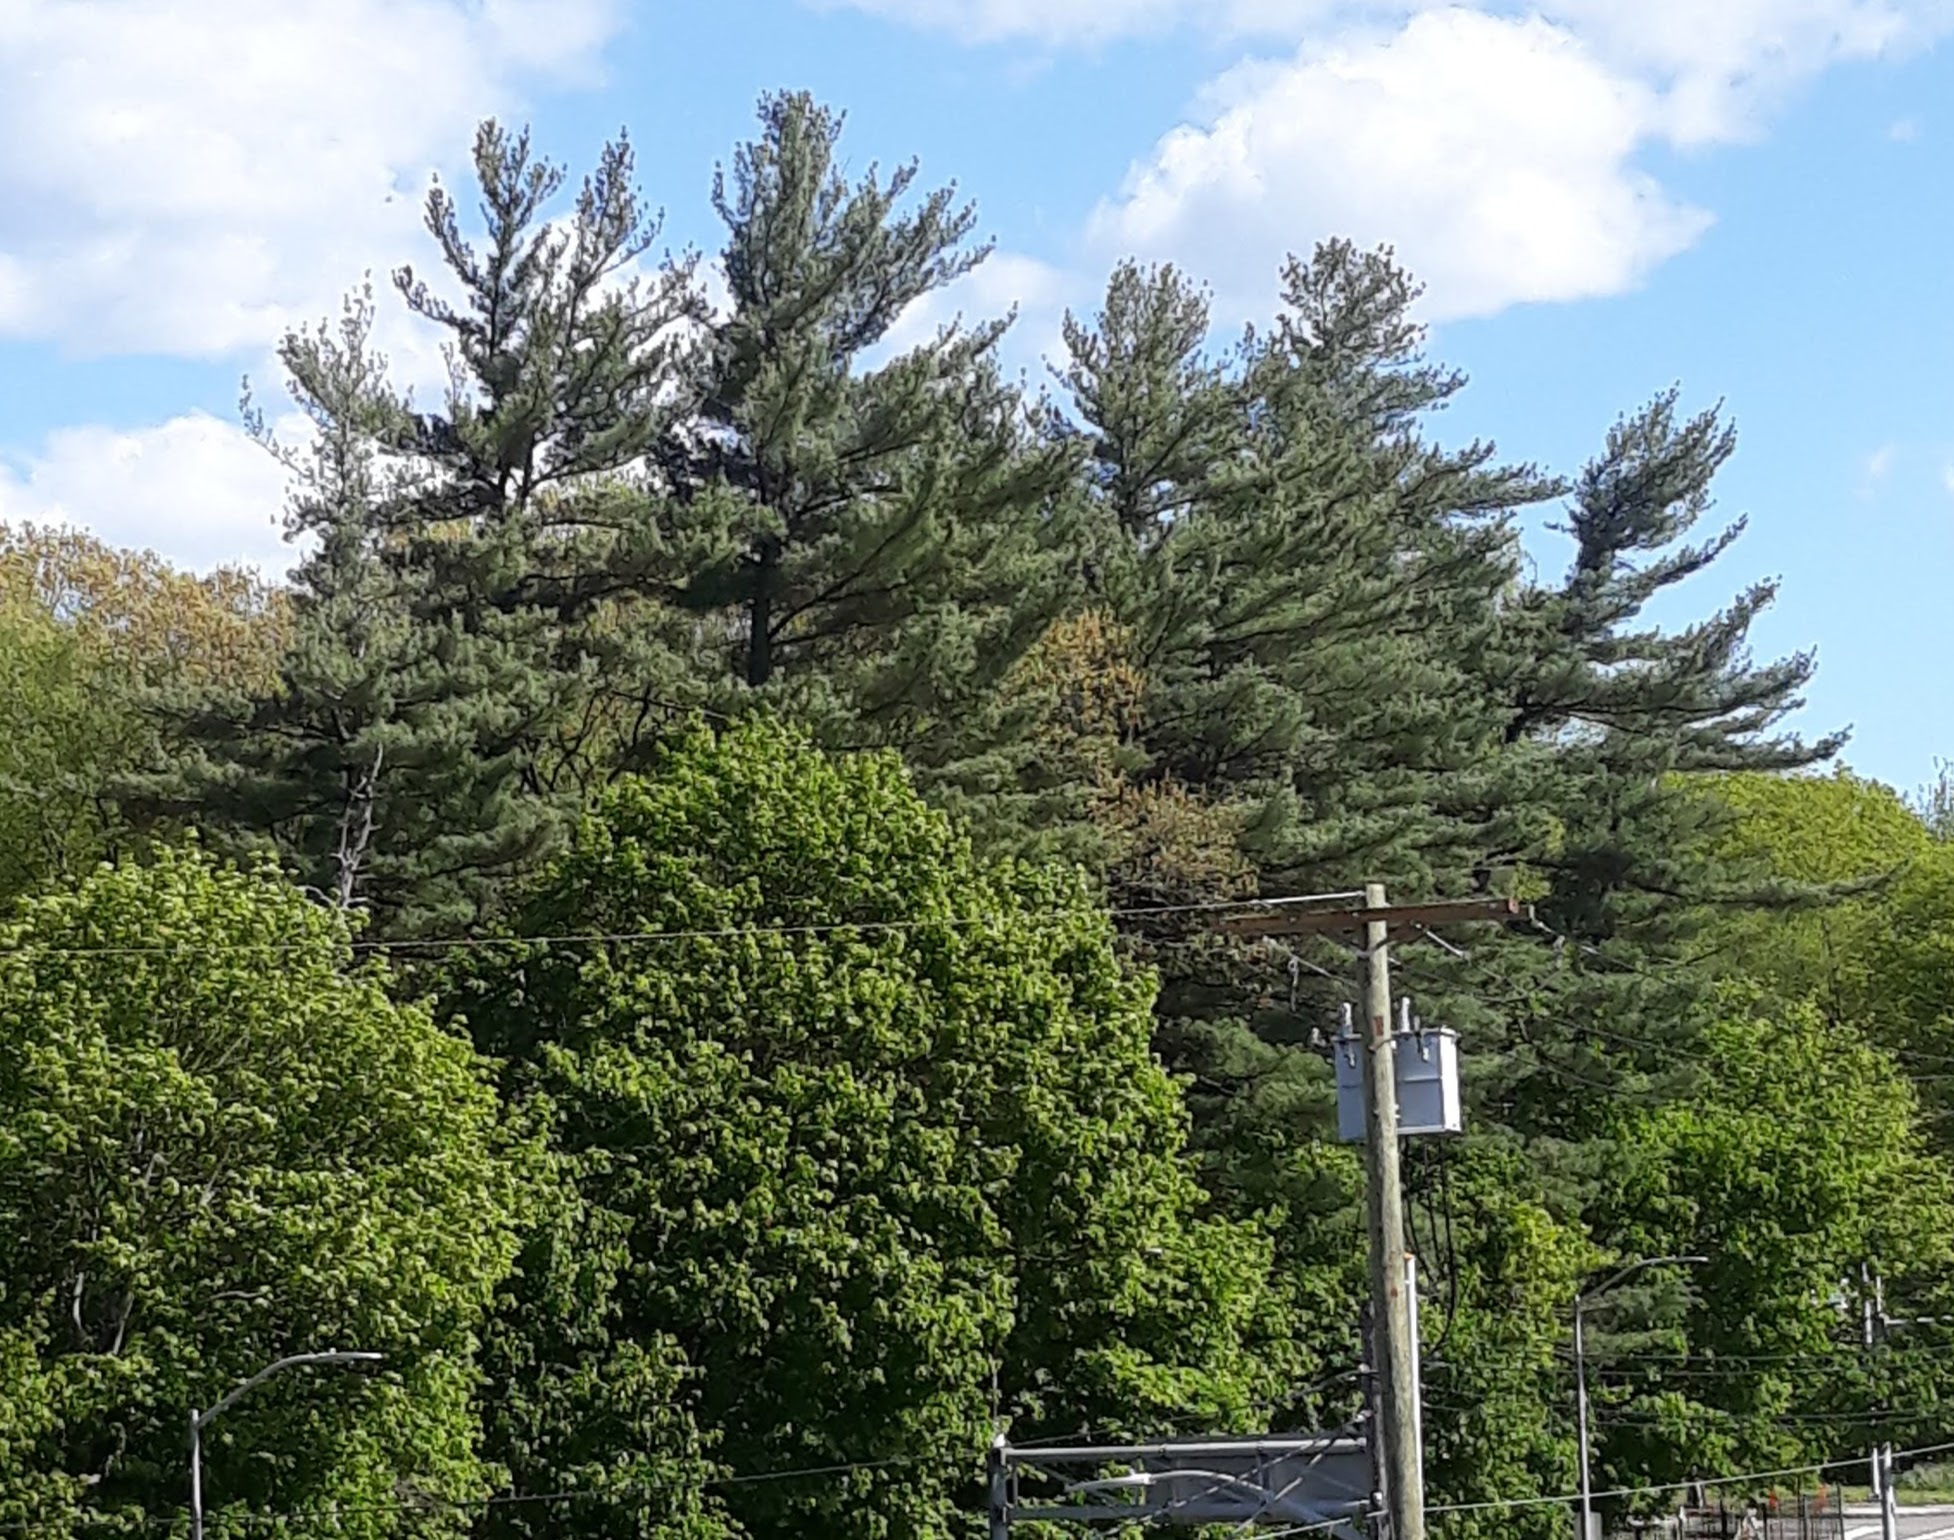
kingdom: Plantae
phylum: Tracheophyta
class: Pinopsida
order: Pinales
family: Pinaceae
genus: Pinus
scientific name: Pinus strobus
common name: Weymouth pine
